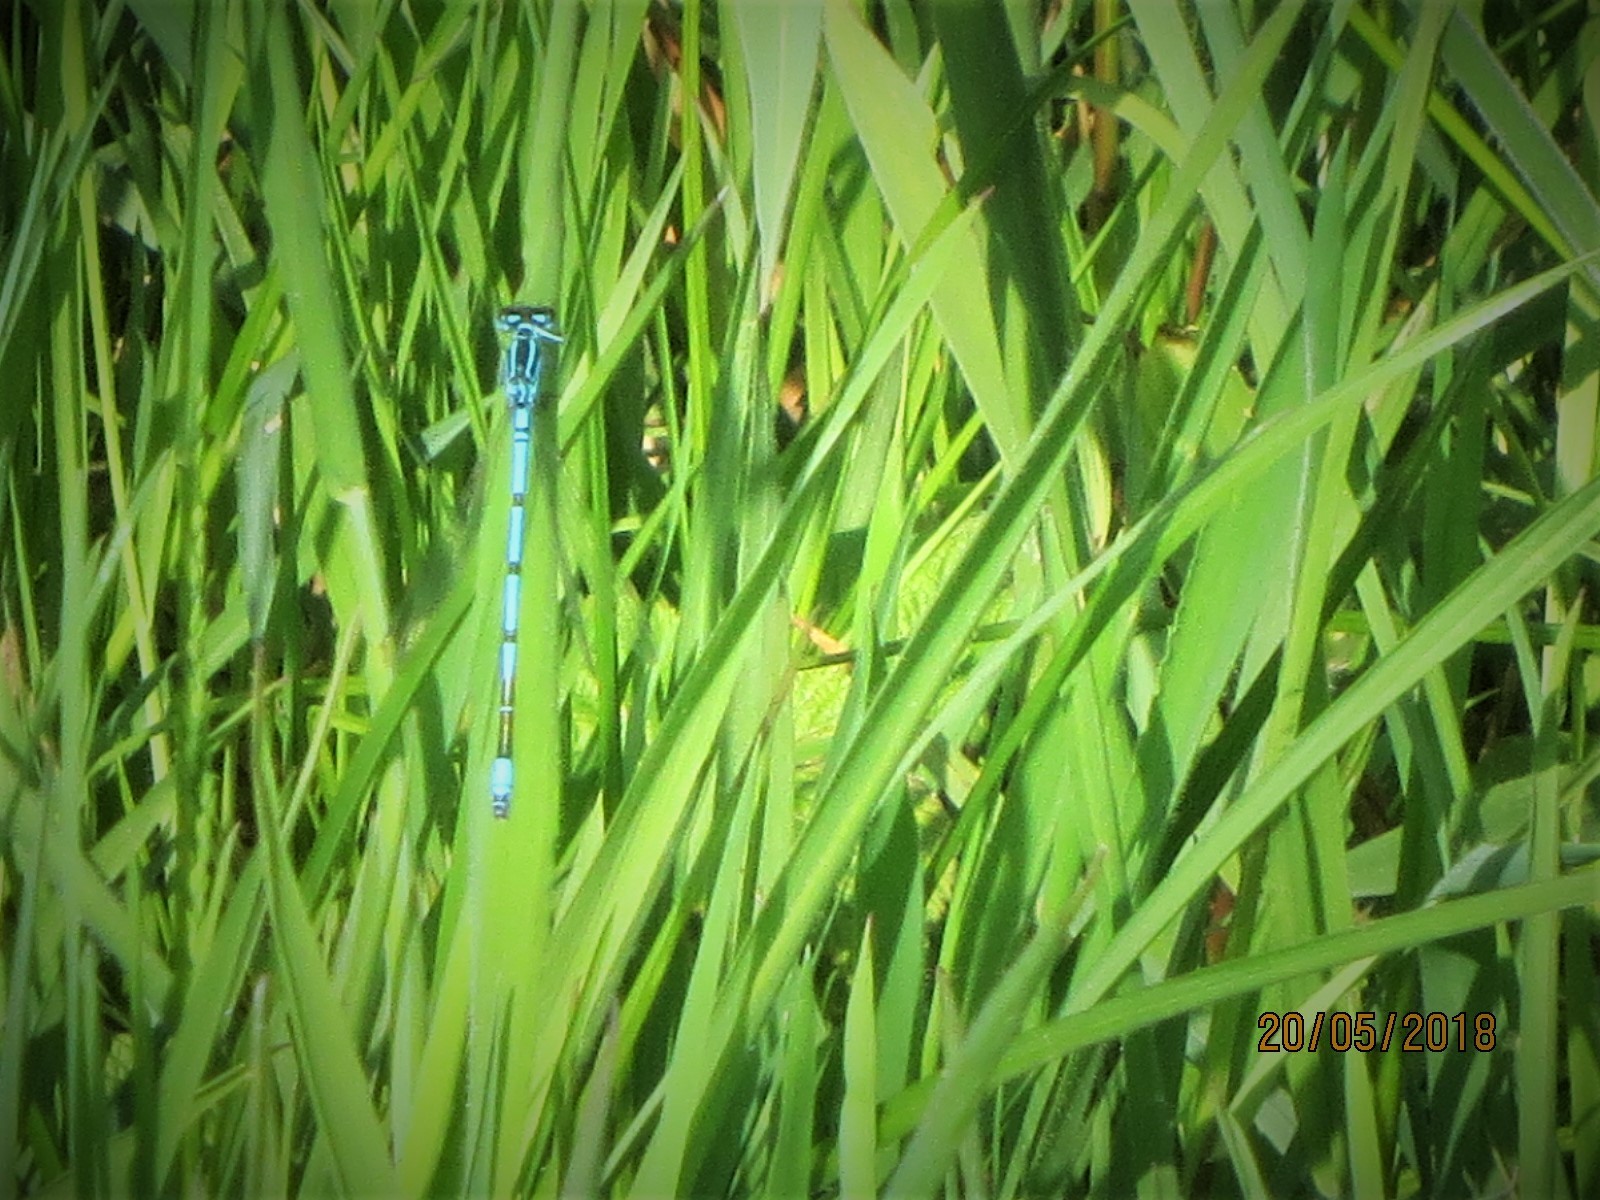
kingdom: Animalia
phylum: Arthropoda
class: Insecta
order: Odonata
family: Coenagrionidae
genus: Coenagrion
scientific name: Coenagrion puella
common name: Azure damselfly
